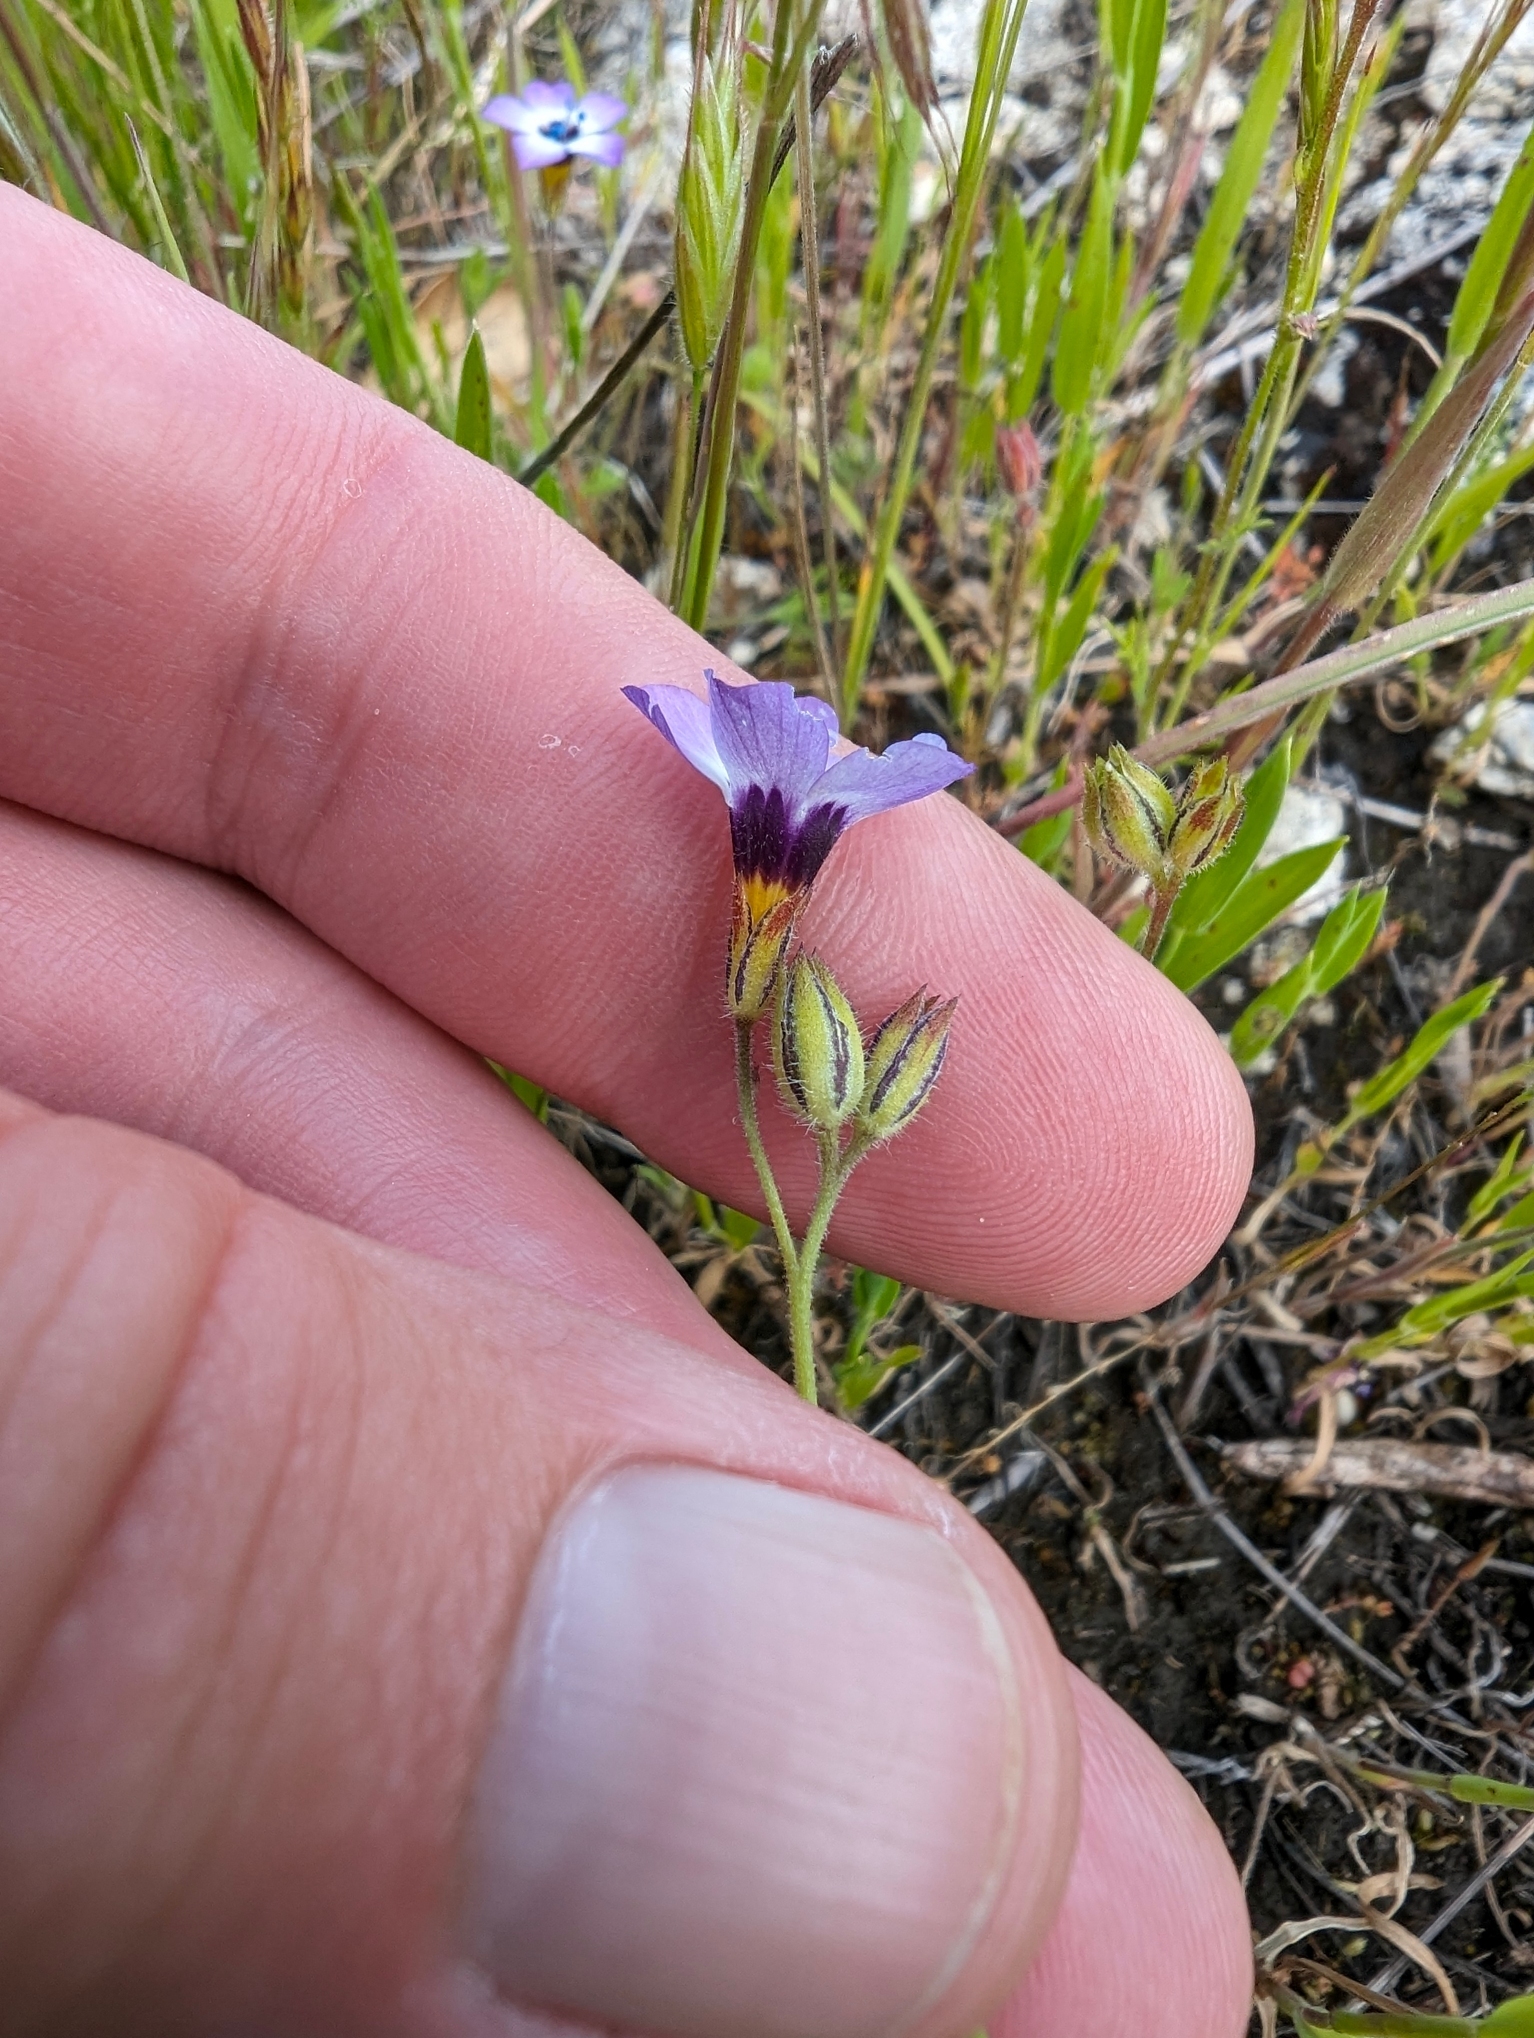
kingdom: Plantae
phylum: Tracheophyta
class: Magnoliopsida
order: Ericales
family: Polemoniaceae
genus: Gilia
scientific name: Gilia tricolor
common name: Bird's-eyes
